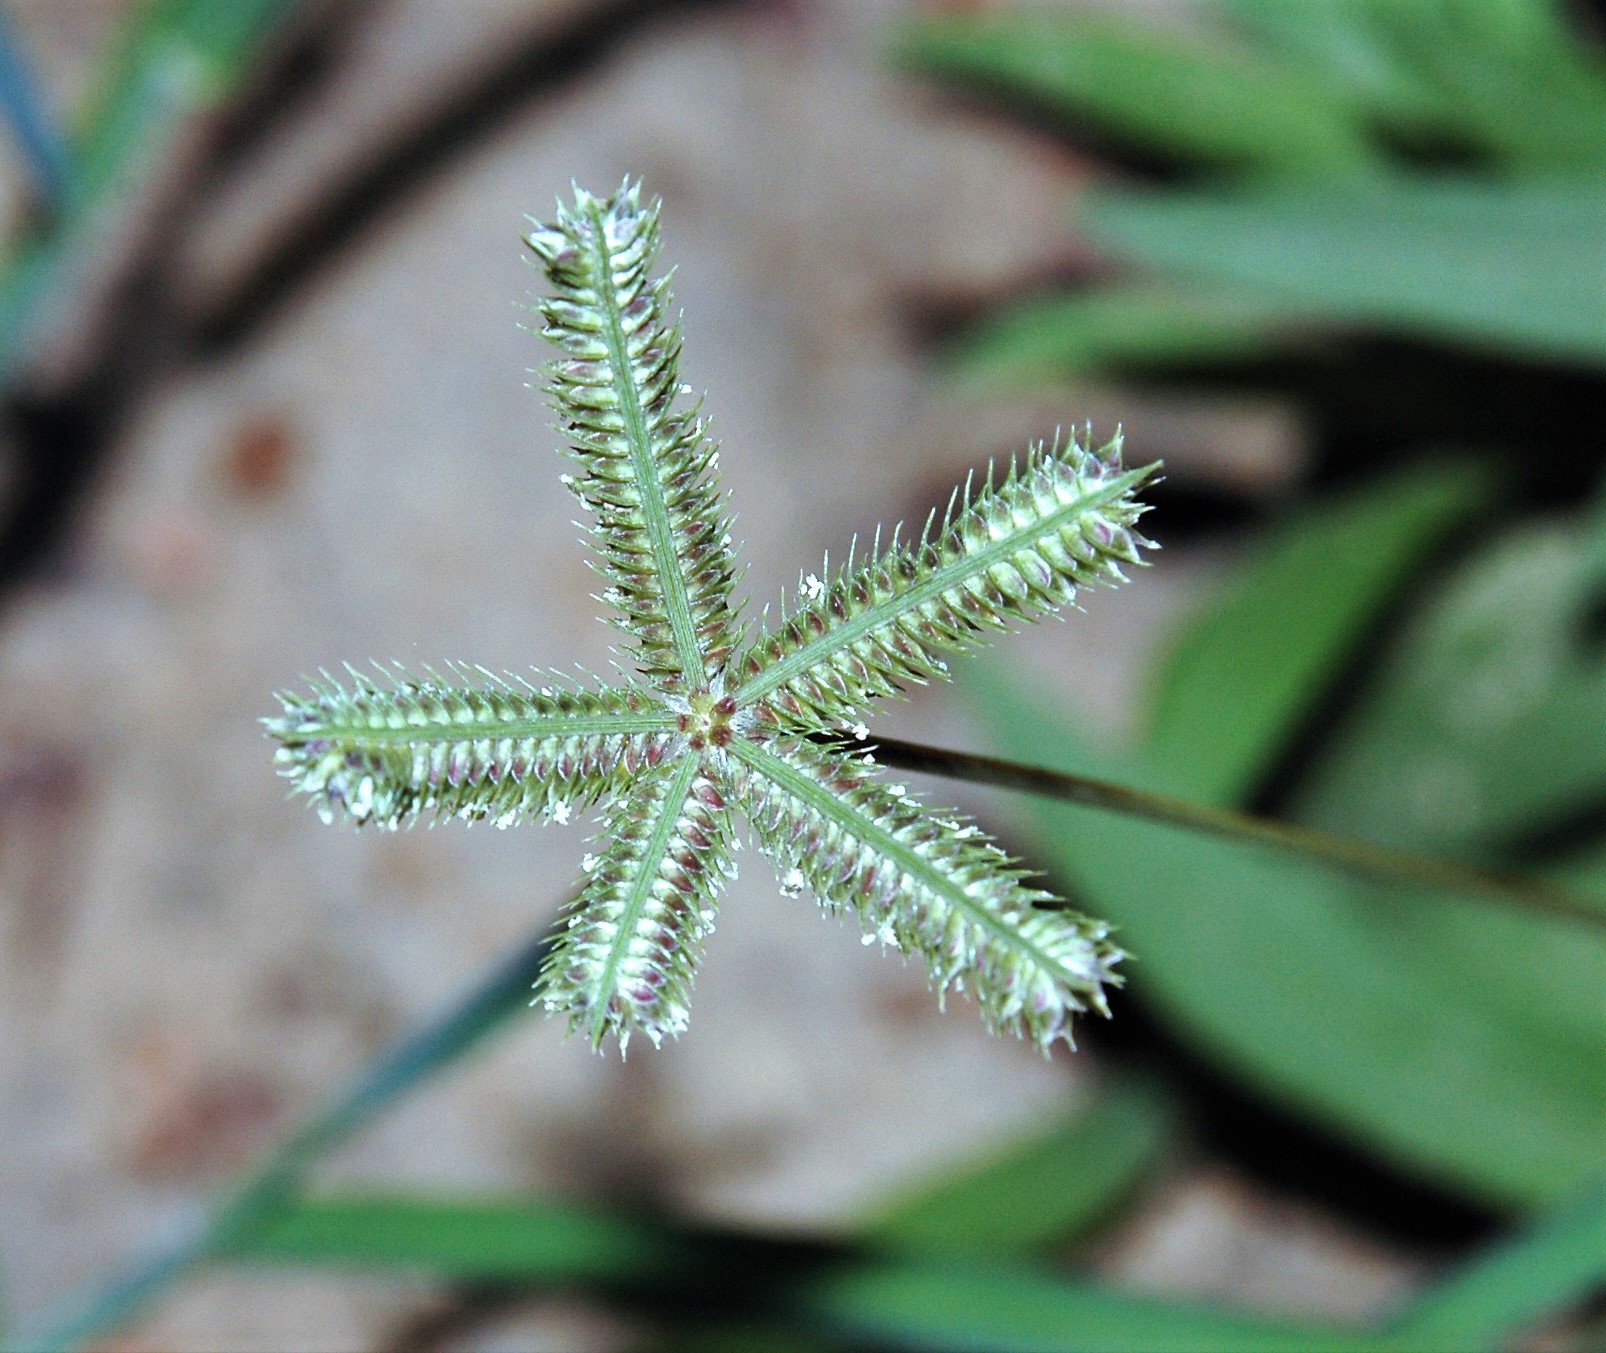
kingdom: Plantae
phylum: Tracheophyta
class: Liliopsida
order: Poales
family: Poaceae
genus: Dactyloctenium
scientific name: Dactyloctenium aegyptium
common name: Egyptian grass
